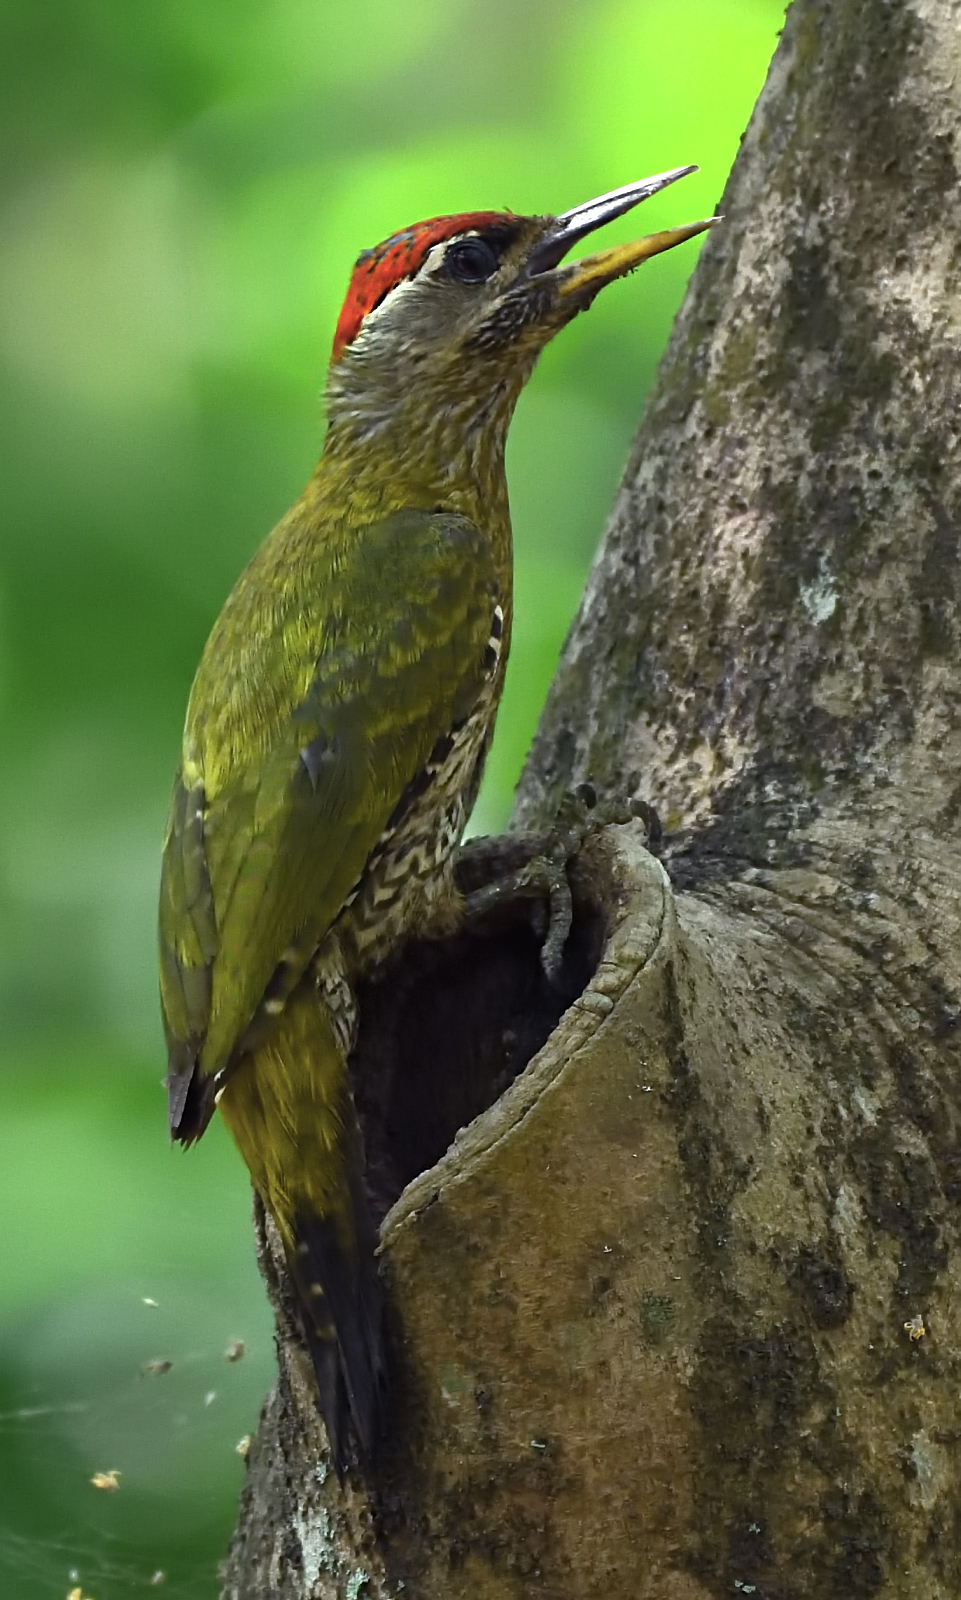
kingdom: Animalia
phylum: Chordata
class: Aves
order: Piciformes
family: Picidae
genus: Picus
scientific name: Picus xanthopygaeus
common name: Streak-throated woodpecker
